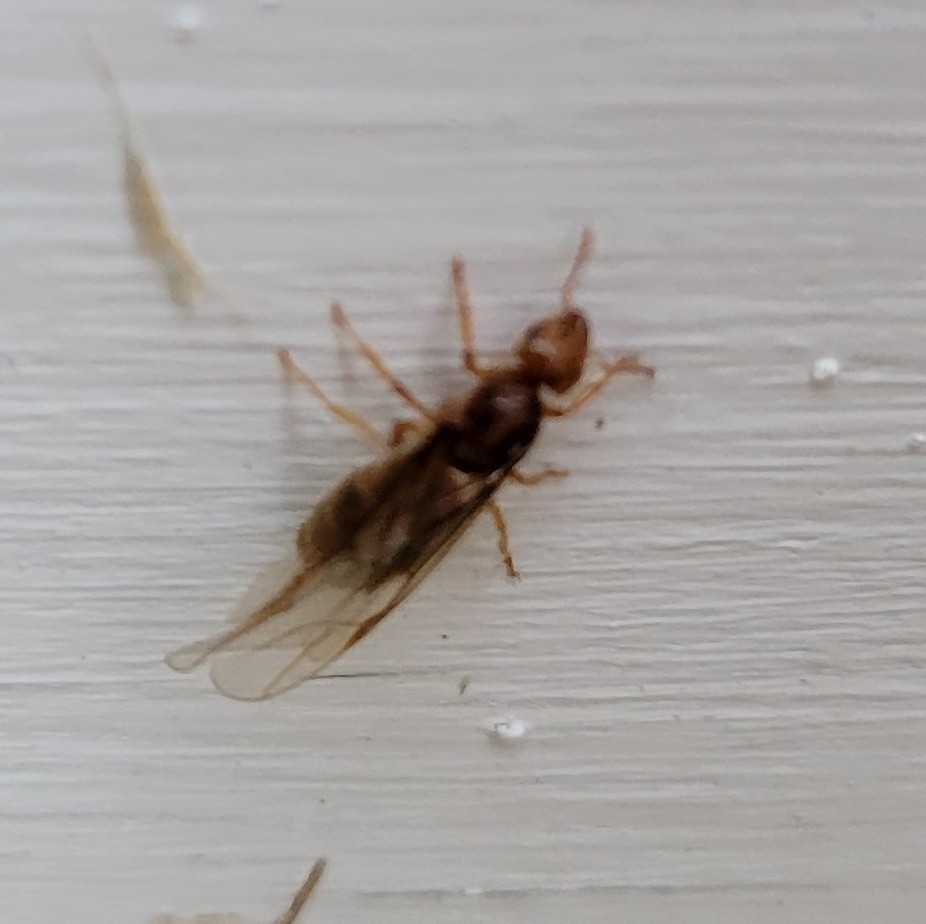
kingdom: Animalia
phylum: Arthropoda
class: Insecta
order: Hymenoptera
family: Formicidae
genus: Lasius
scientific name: Lasius
